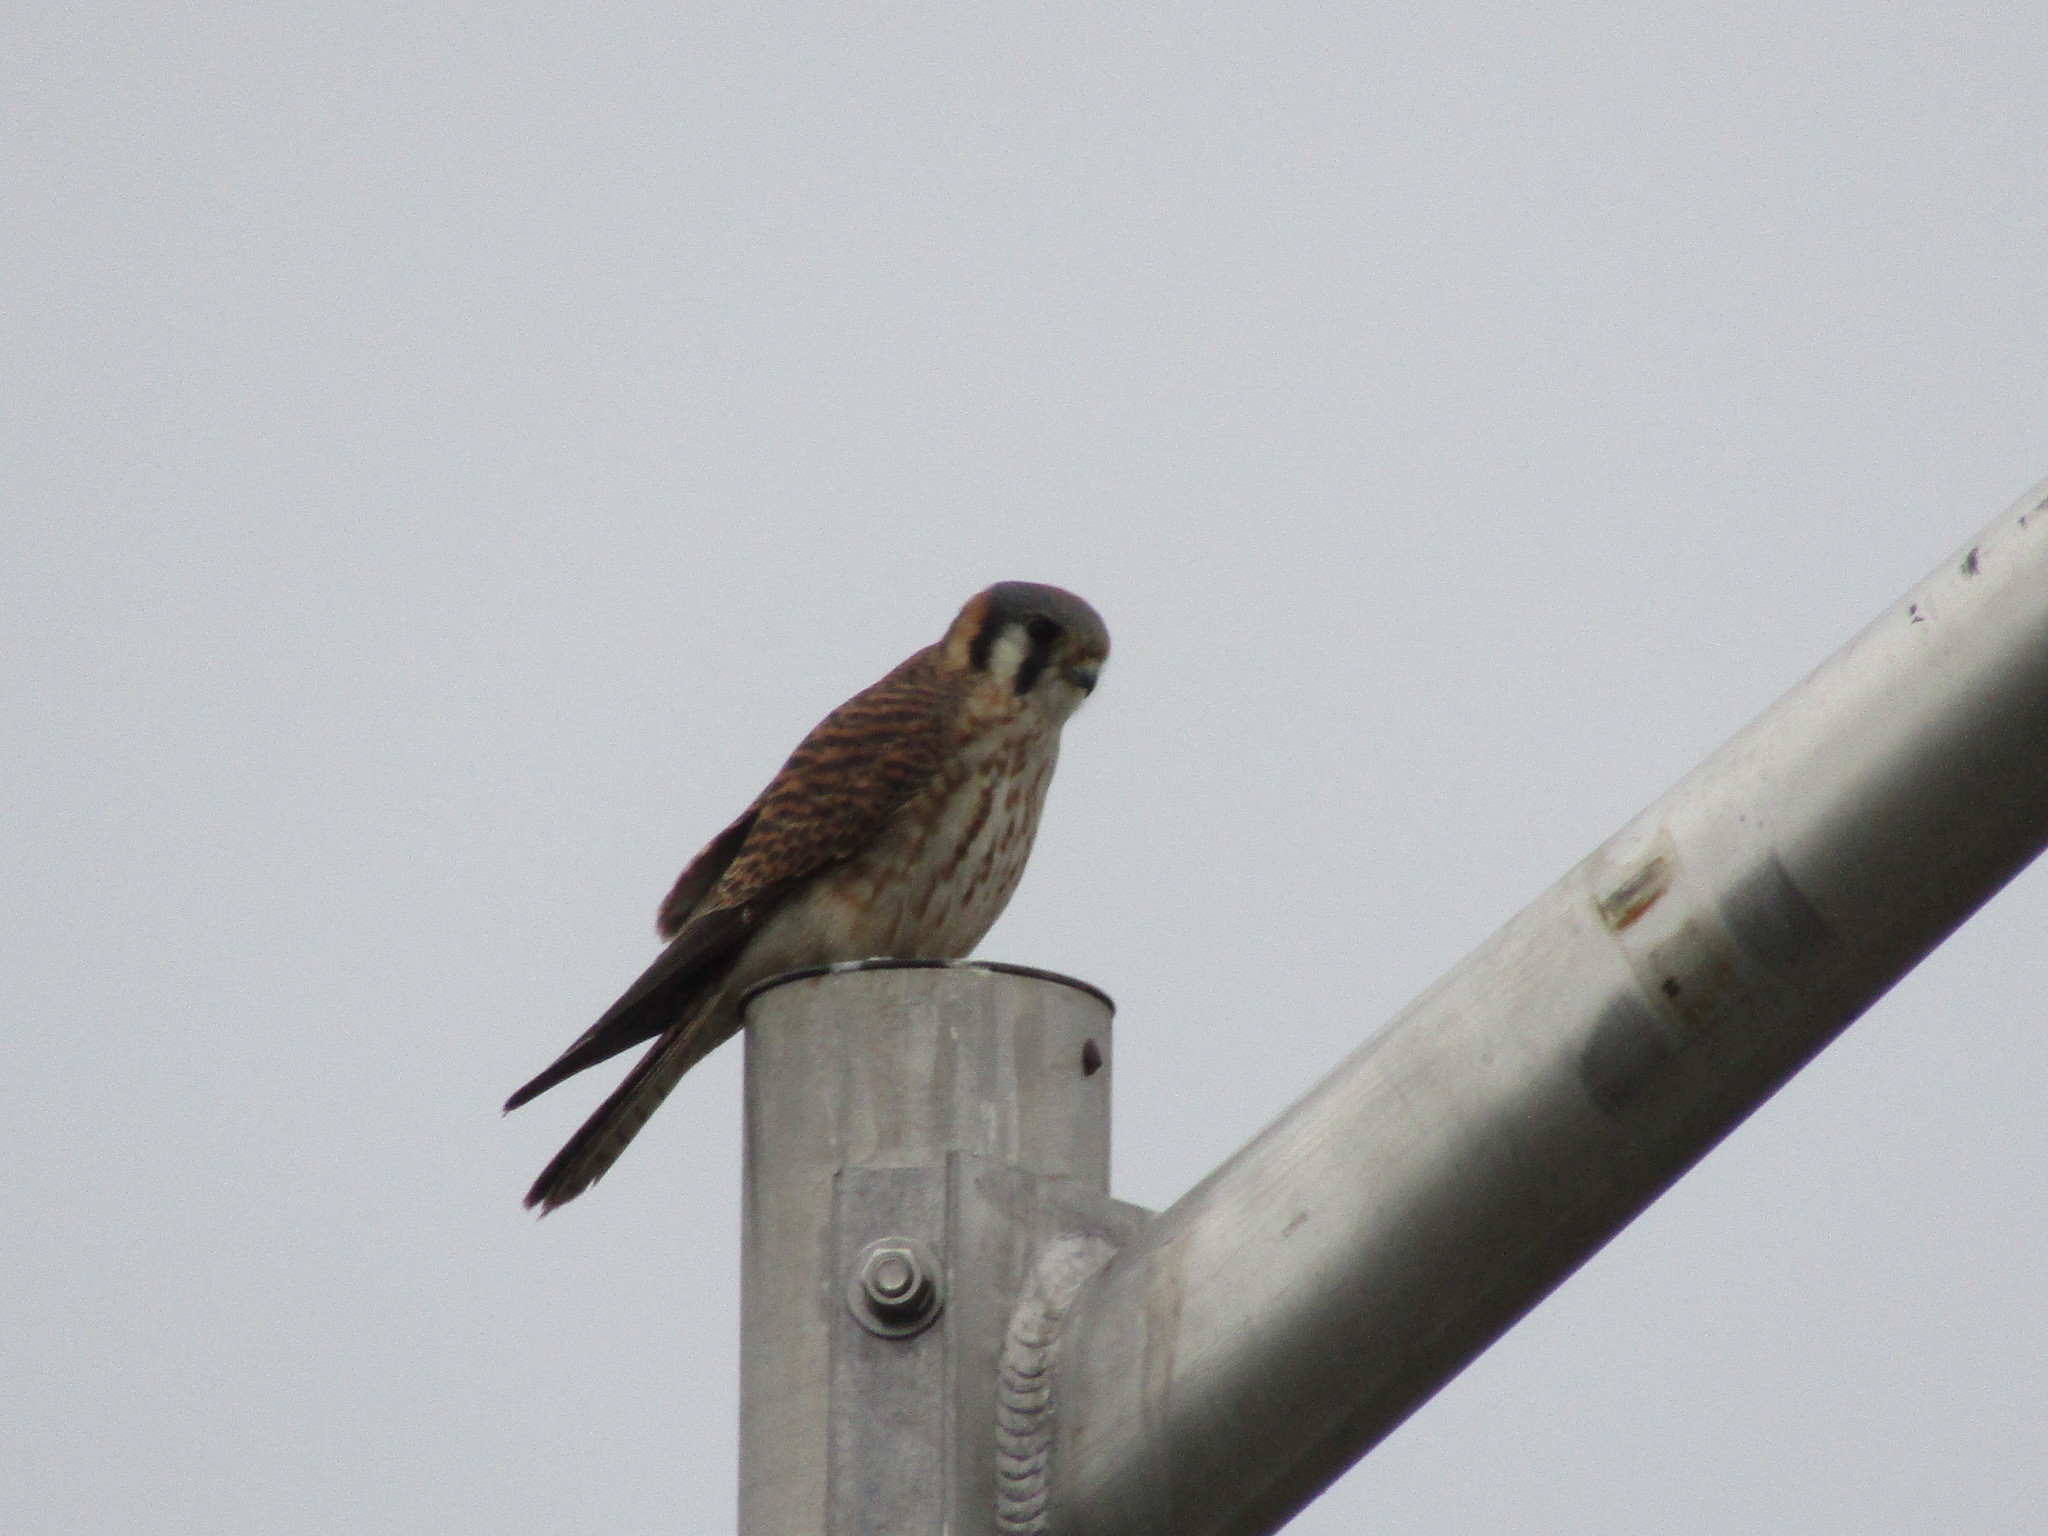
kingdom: Animalia
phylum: Chordata
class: Aves
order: Falconiformes
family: Falconidae
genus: Falco
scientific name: Falco sparverius
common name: American kestrel
